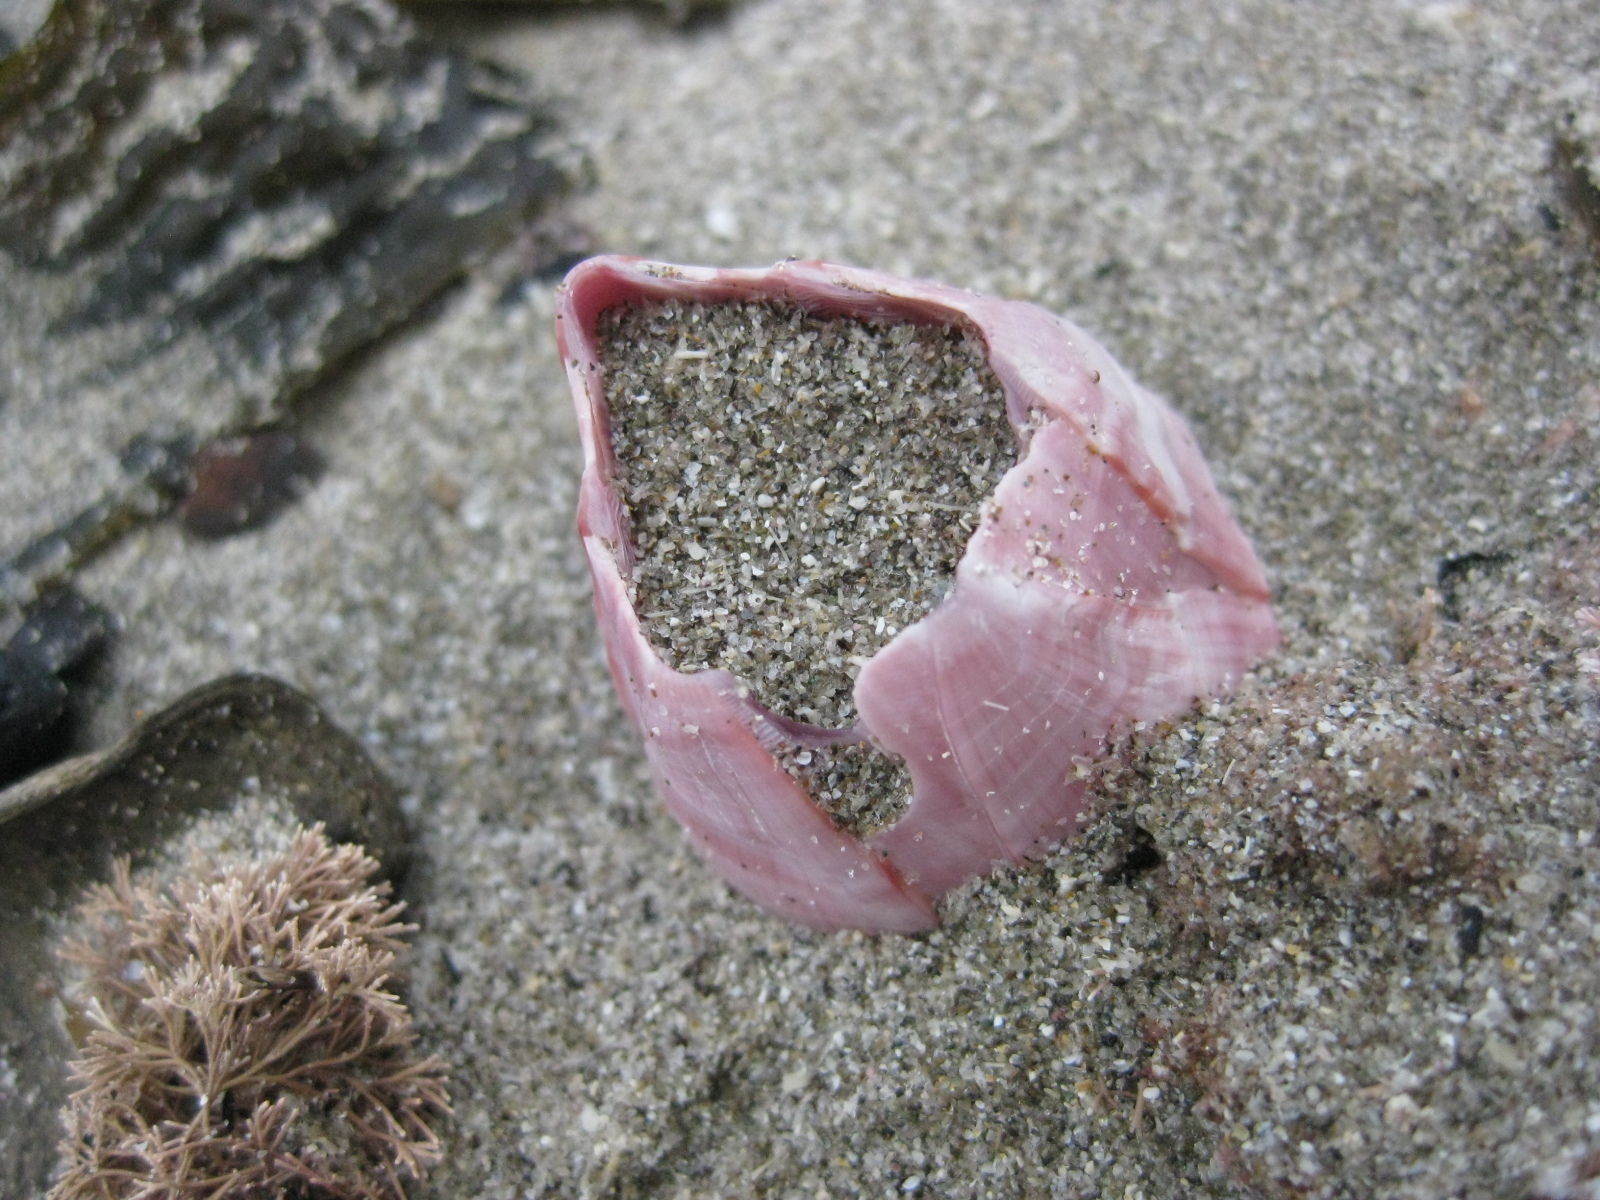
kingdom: Animalia
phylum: Arthropoda
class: Maxillopoda
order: Sessilia
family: Balanidae
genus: Notomegabalanus
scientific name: Notomegabalanus decorus
